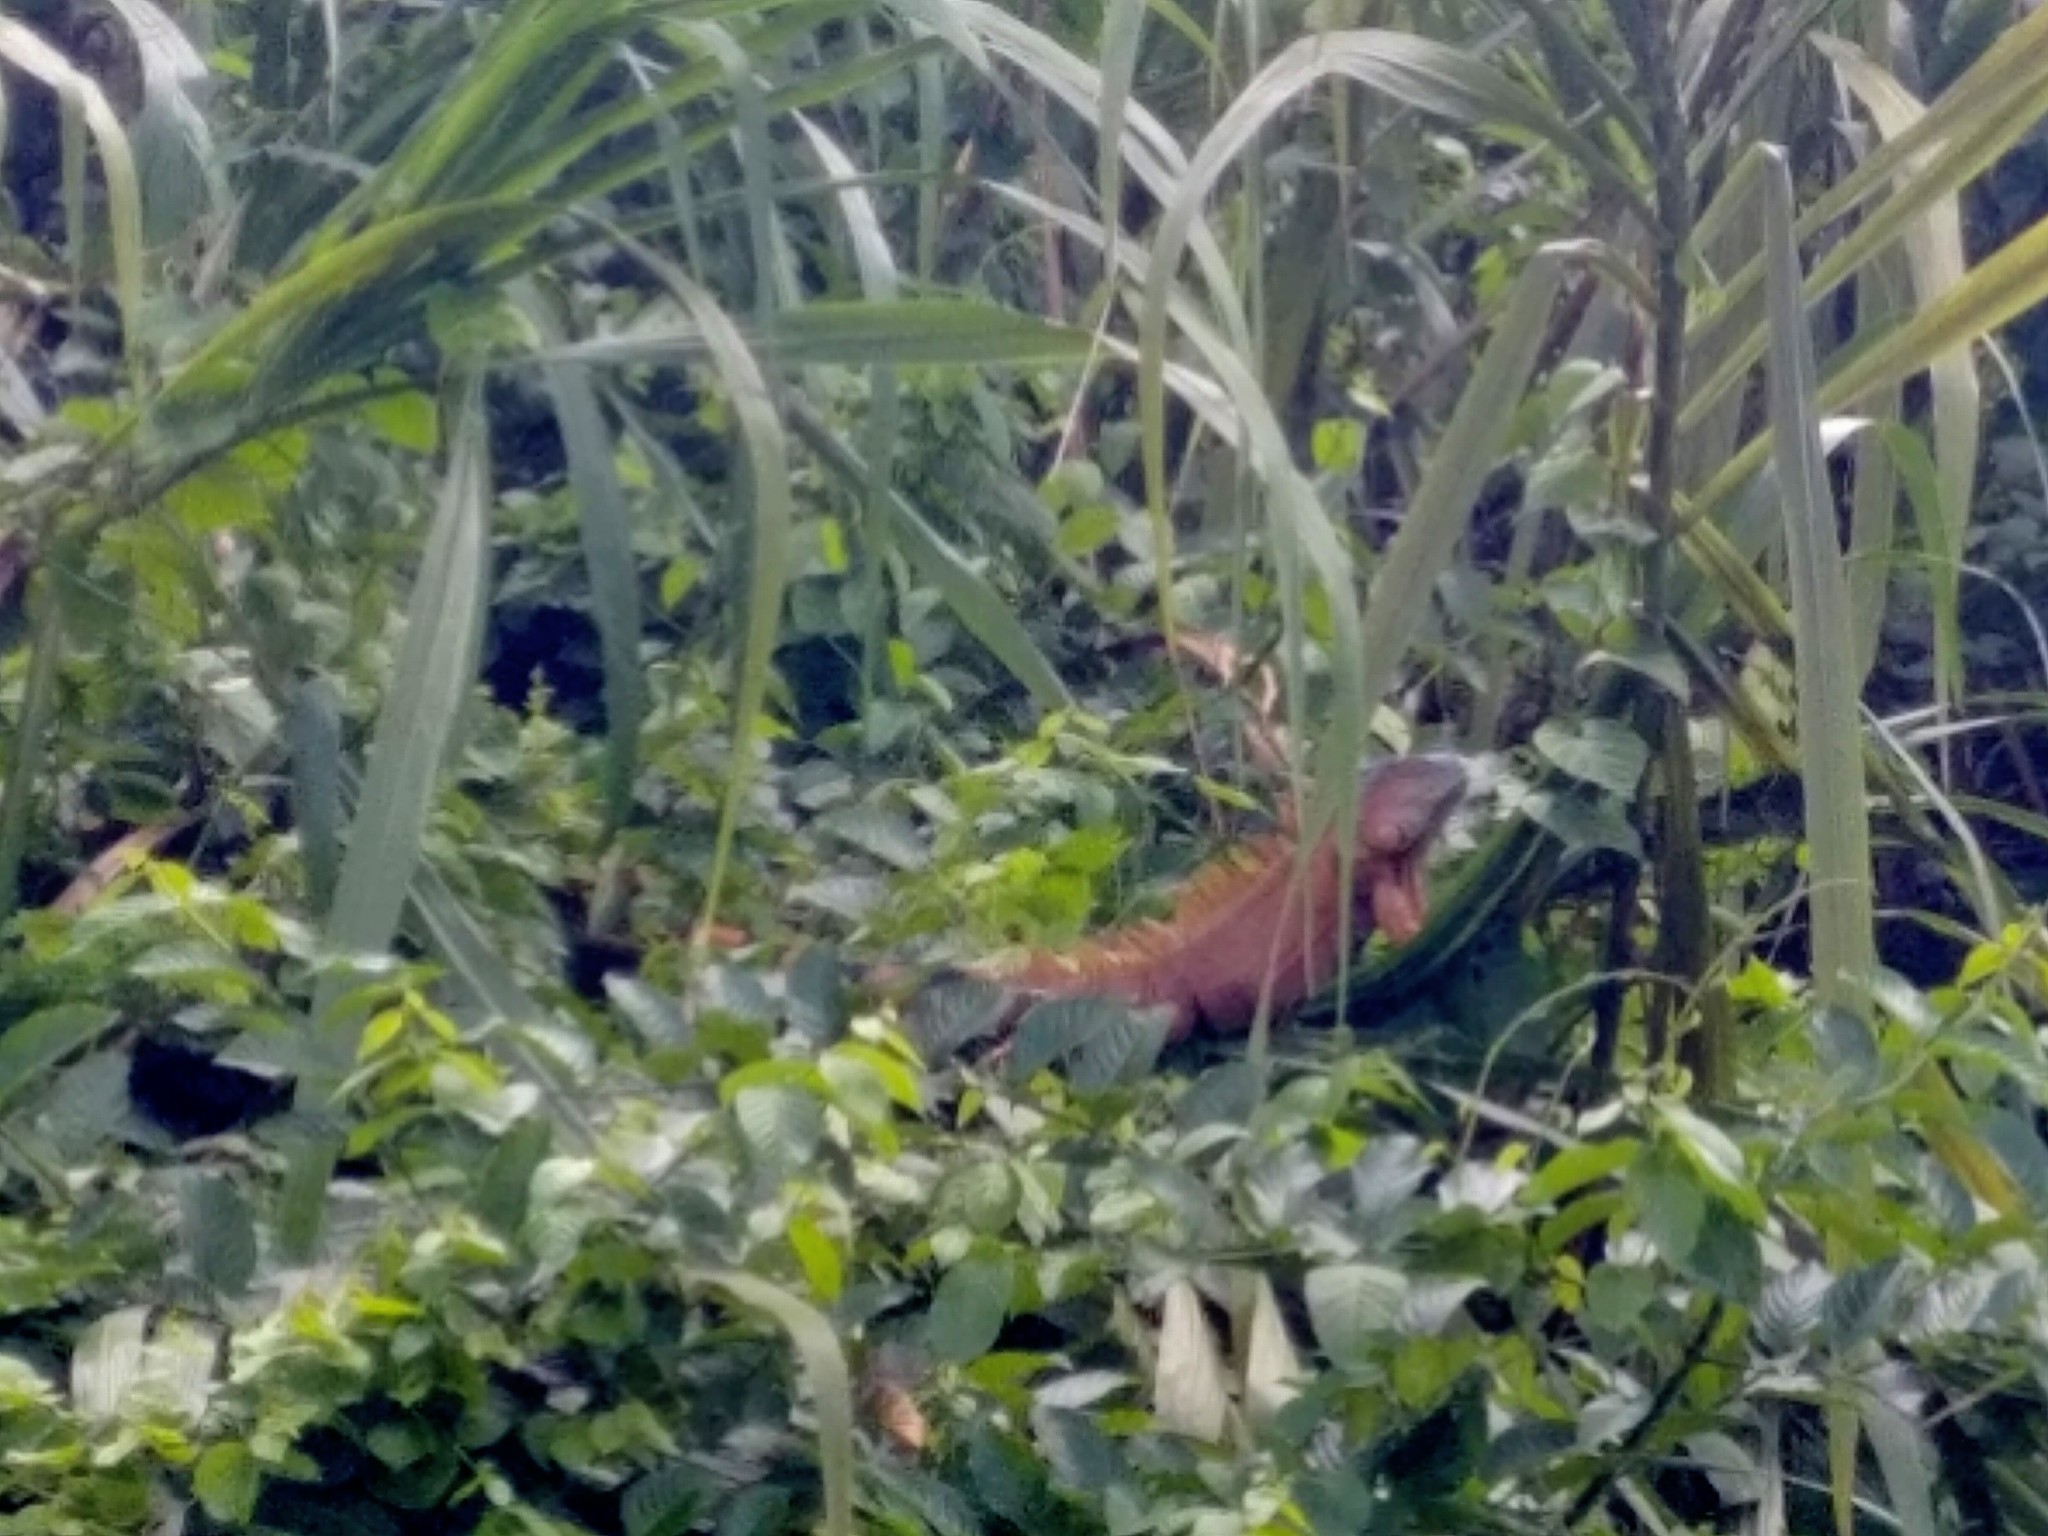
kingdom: Animalia
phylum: Chordata
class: Squamata
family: Iguanidae
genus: Iguana
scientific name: Iguana iguana
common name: Green iguana
